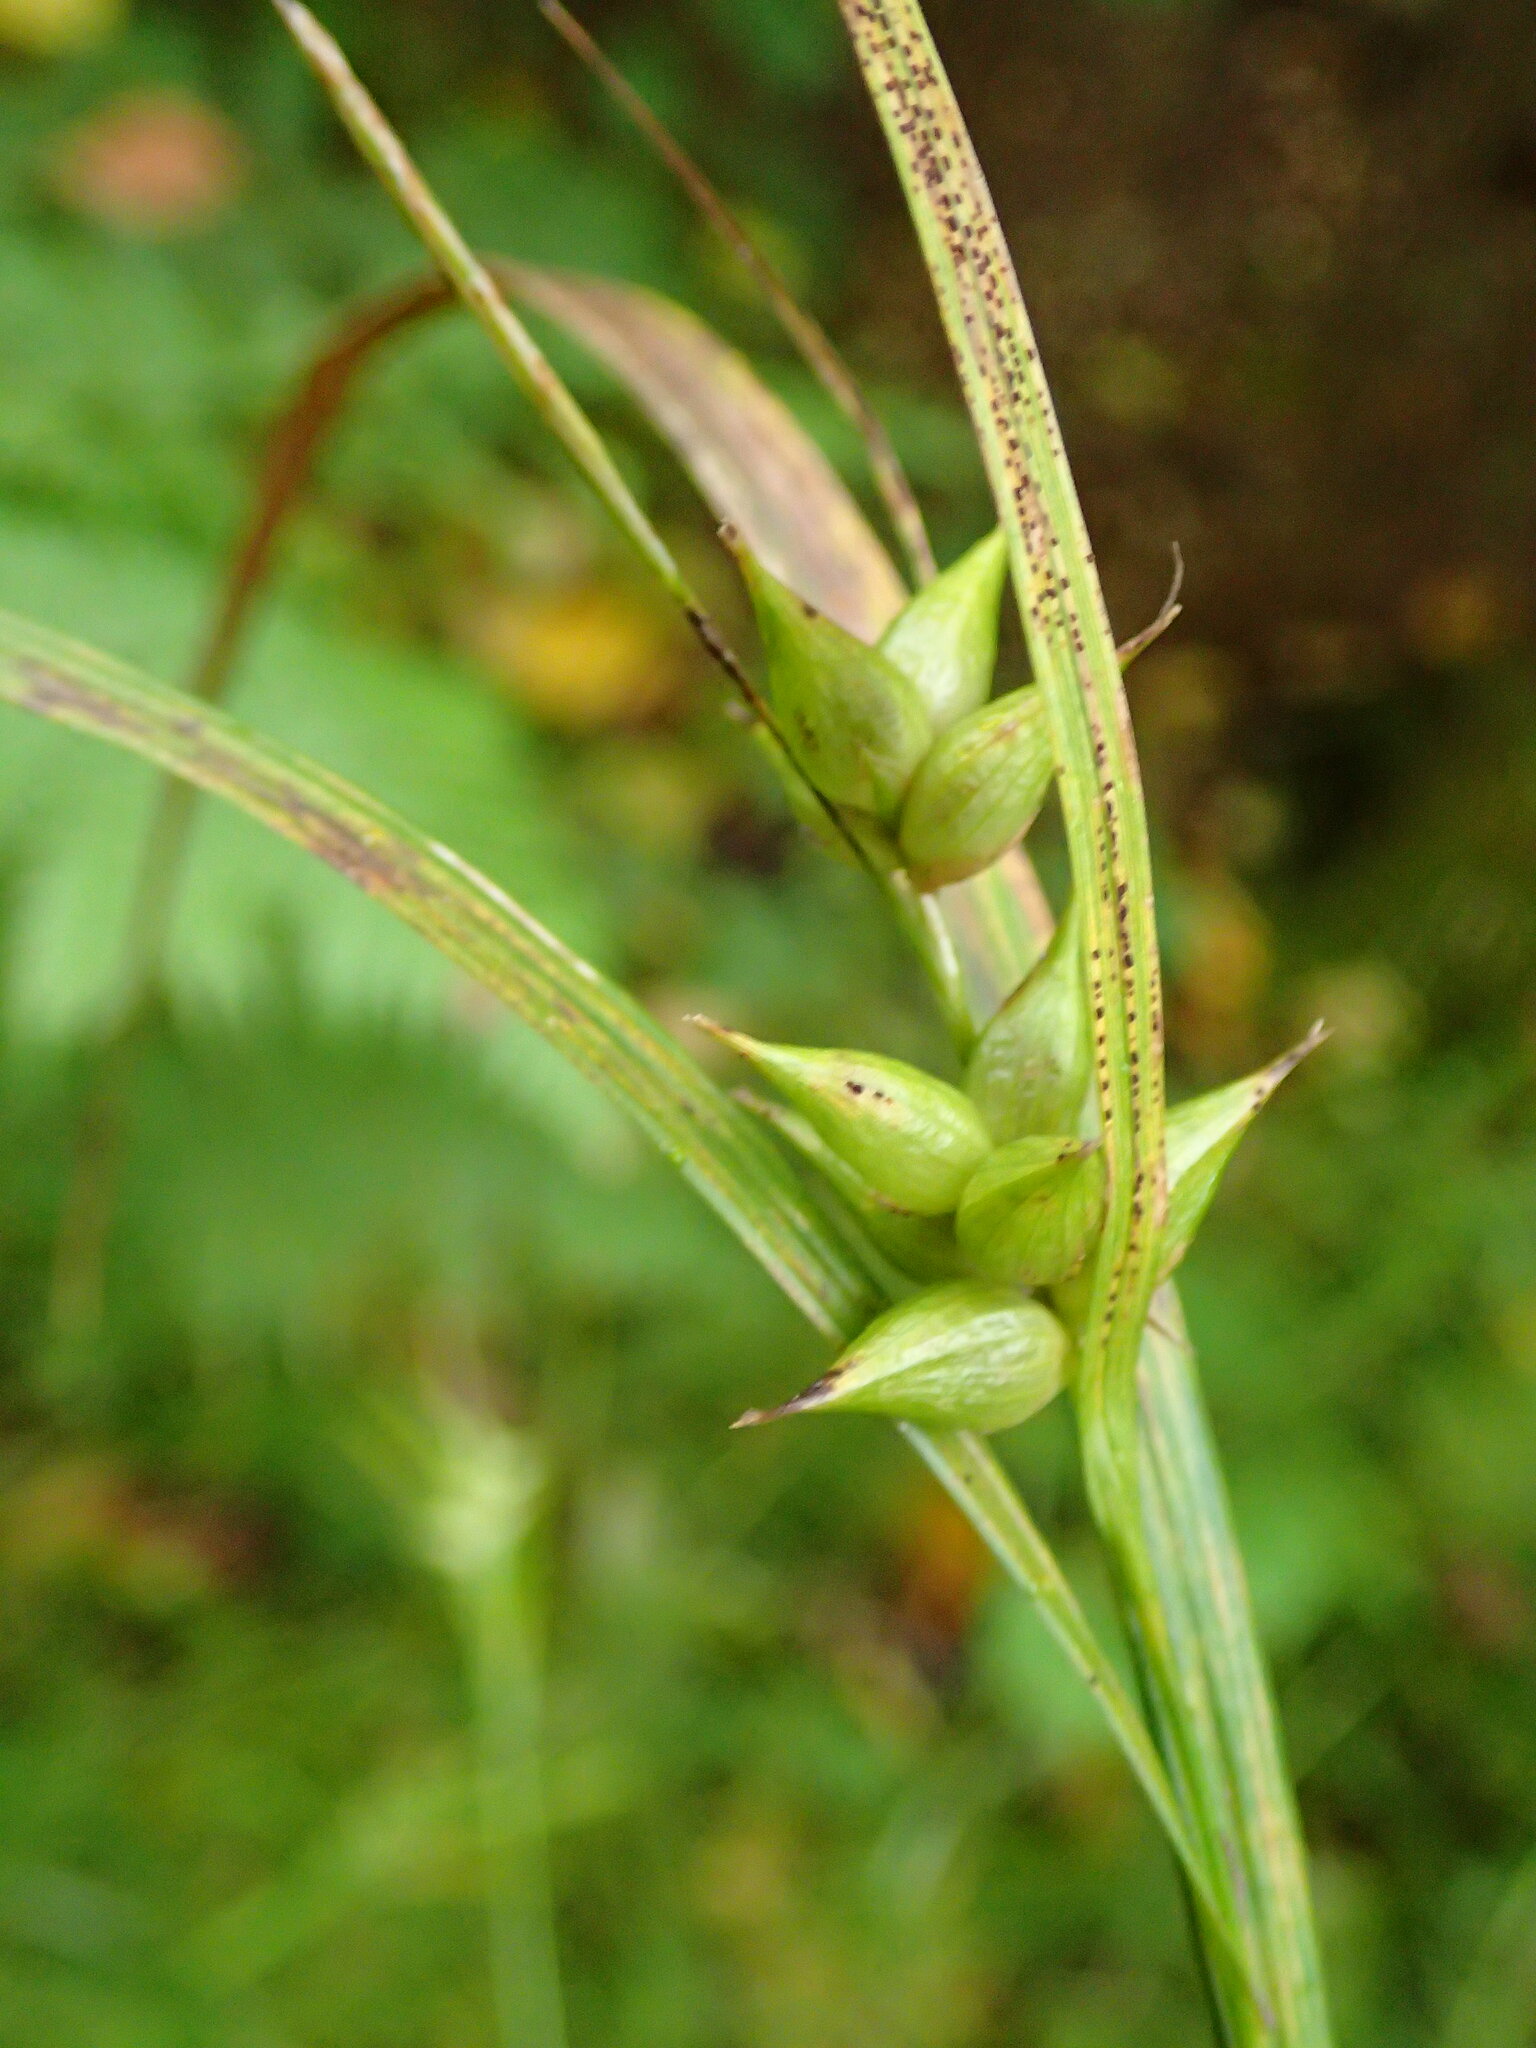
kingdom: Plantae
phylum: Tracheophyta
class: Liliopsida
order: Poales
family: Cyperaceae
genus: Carex
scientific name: Carex intumescens
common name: Greater bladder sedge
